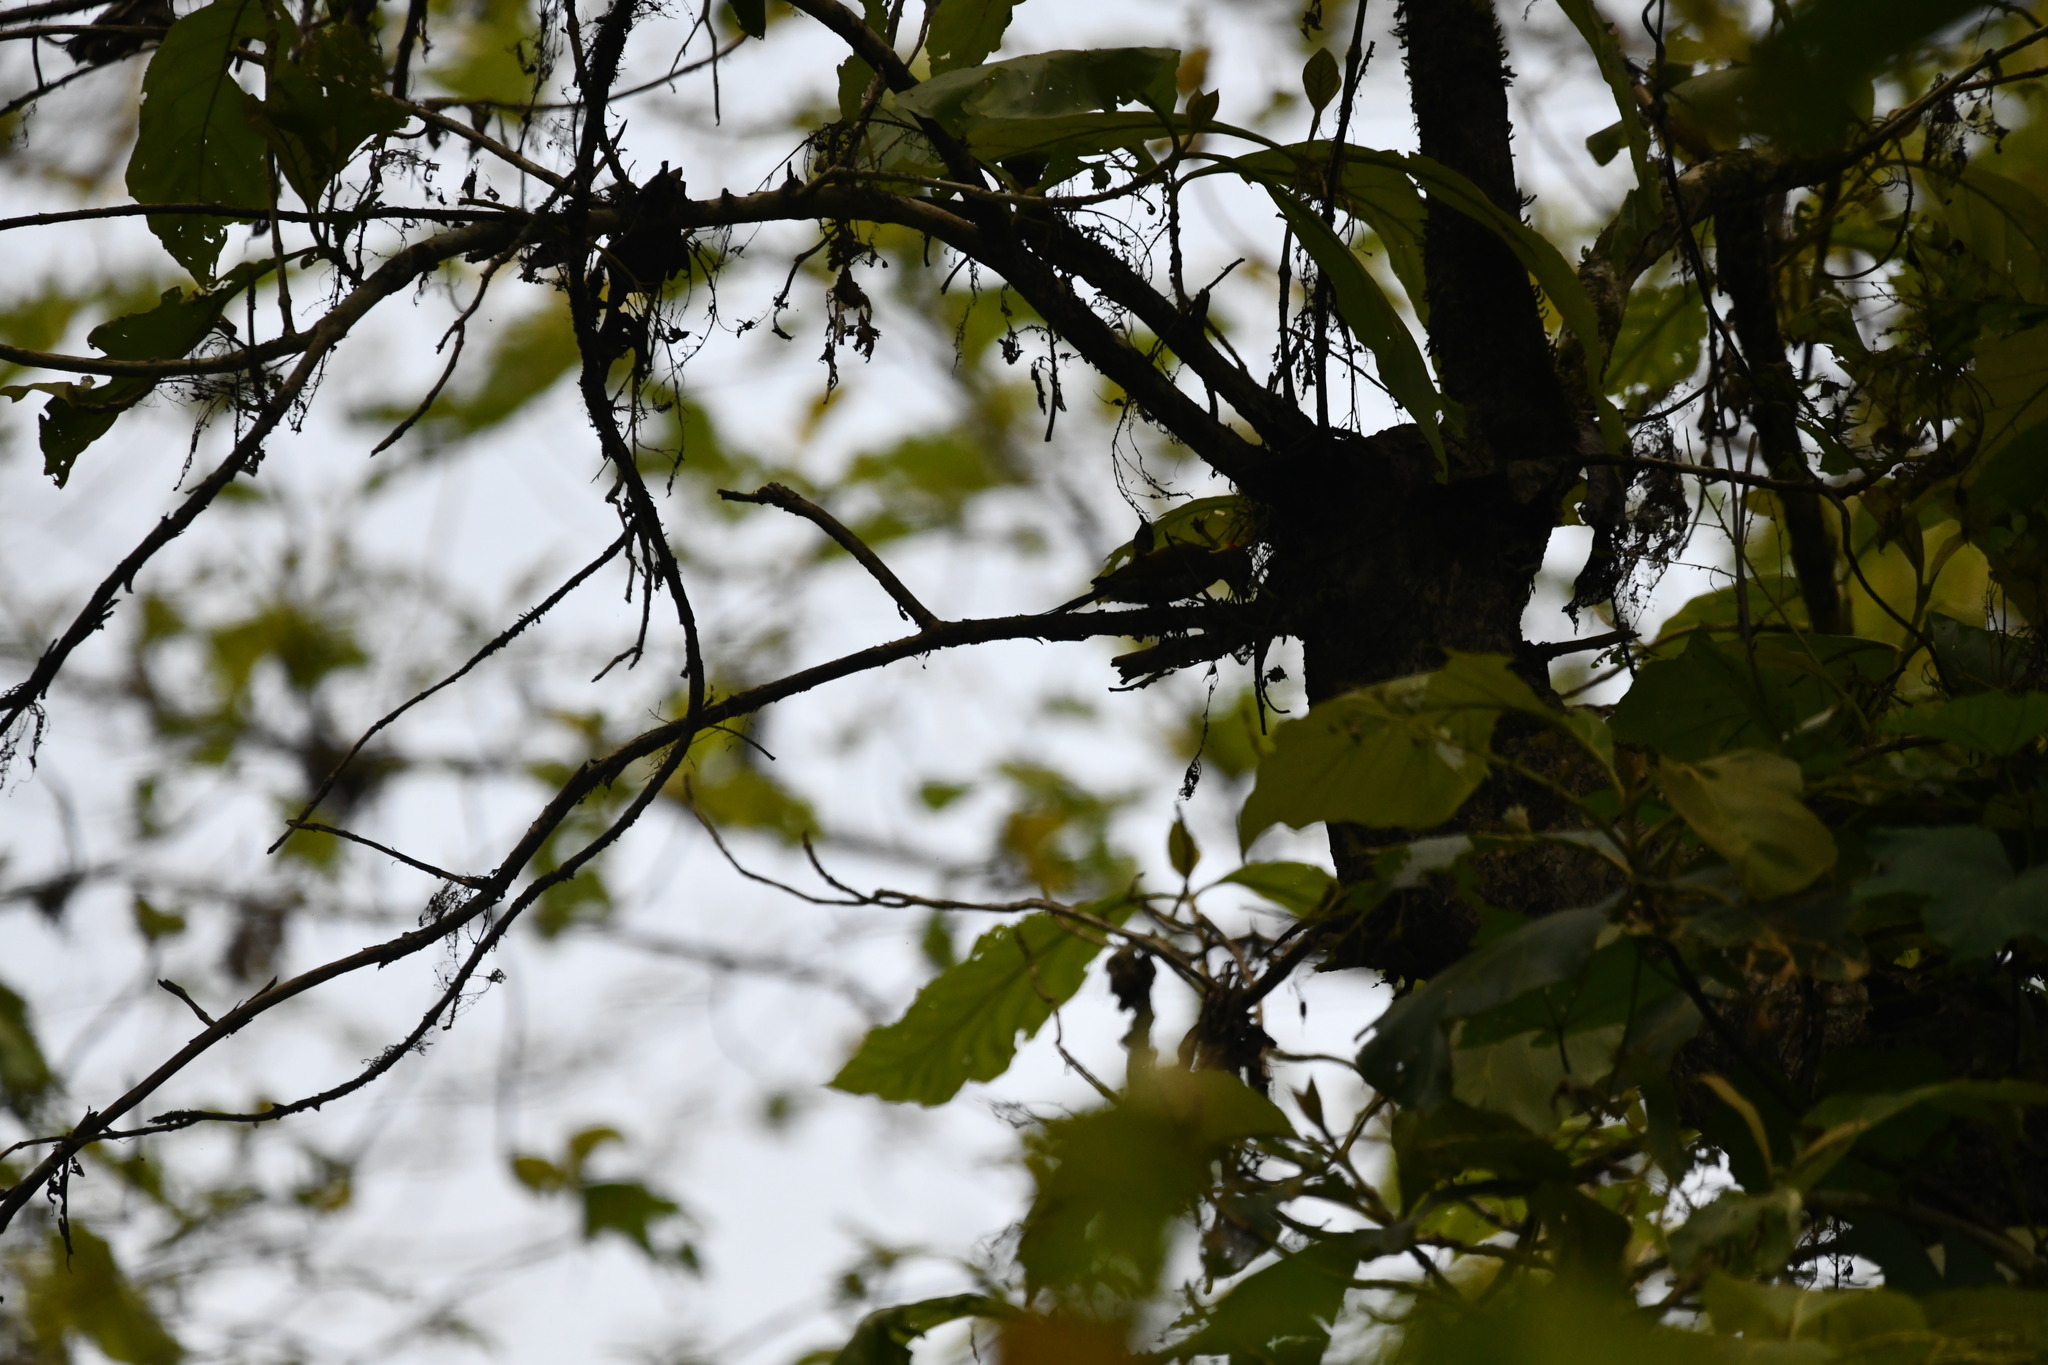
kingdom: Animalia
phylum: Chordata
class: Aves
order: Piciformes
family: Picidae
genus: Picus
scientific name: Picus chlorolophus
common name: Lesser yellownape
